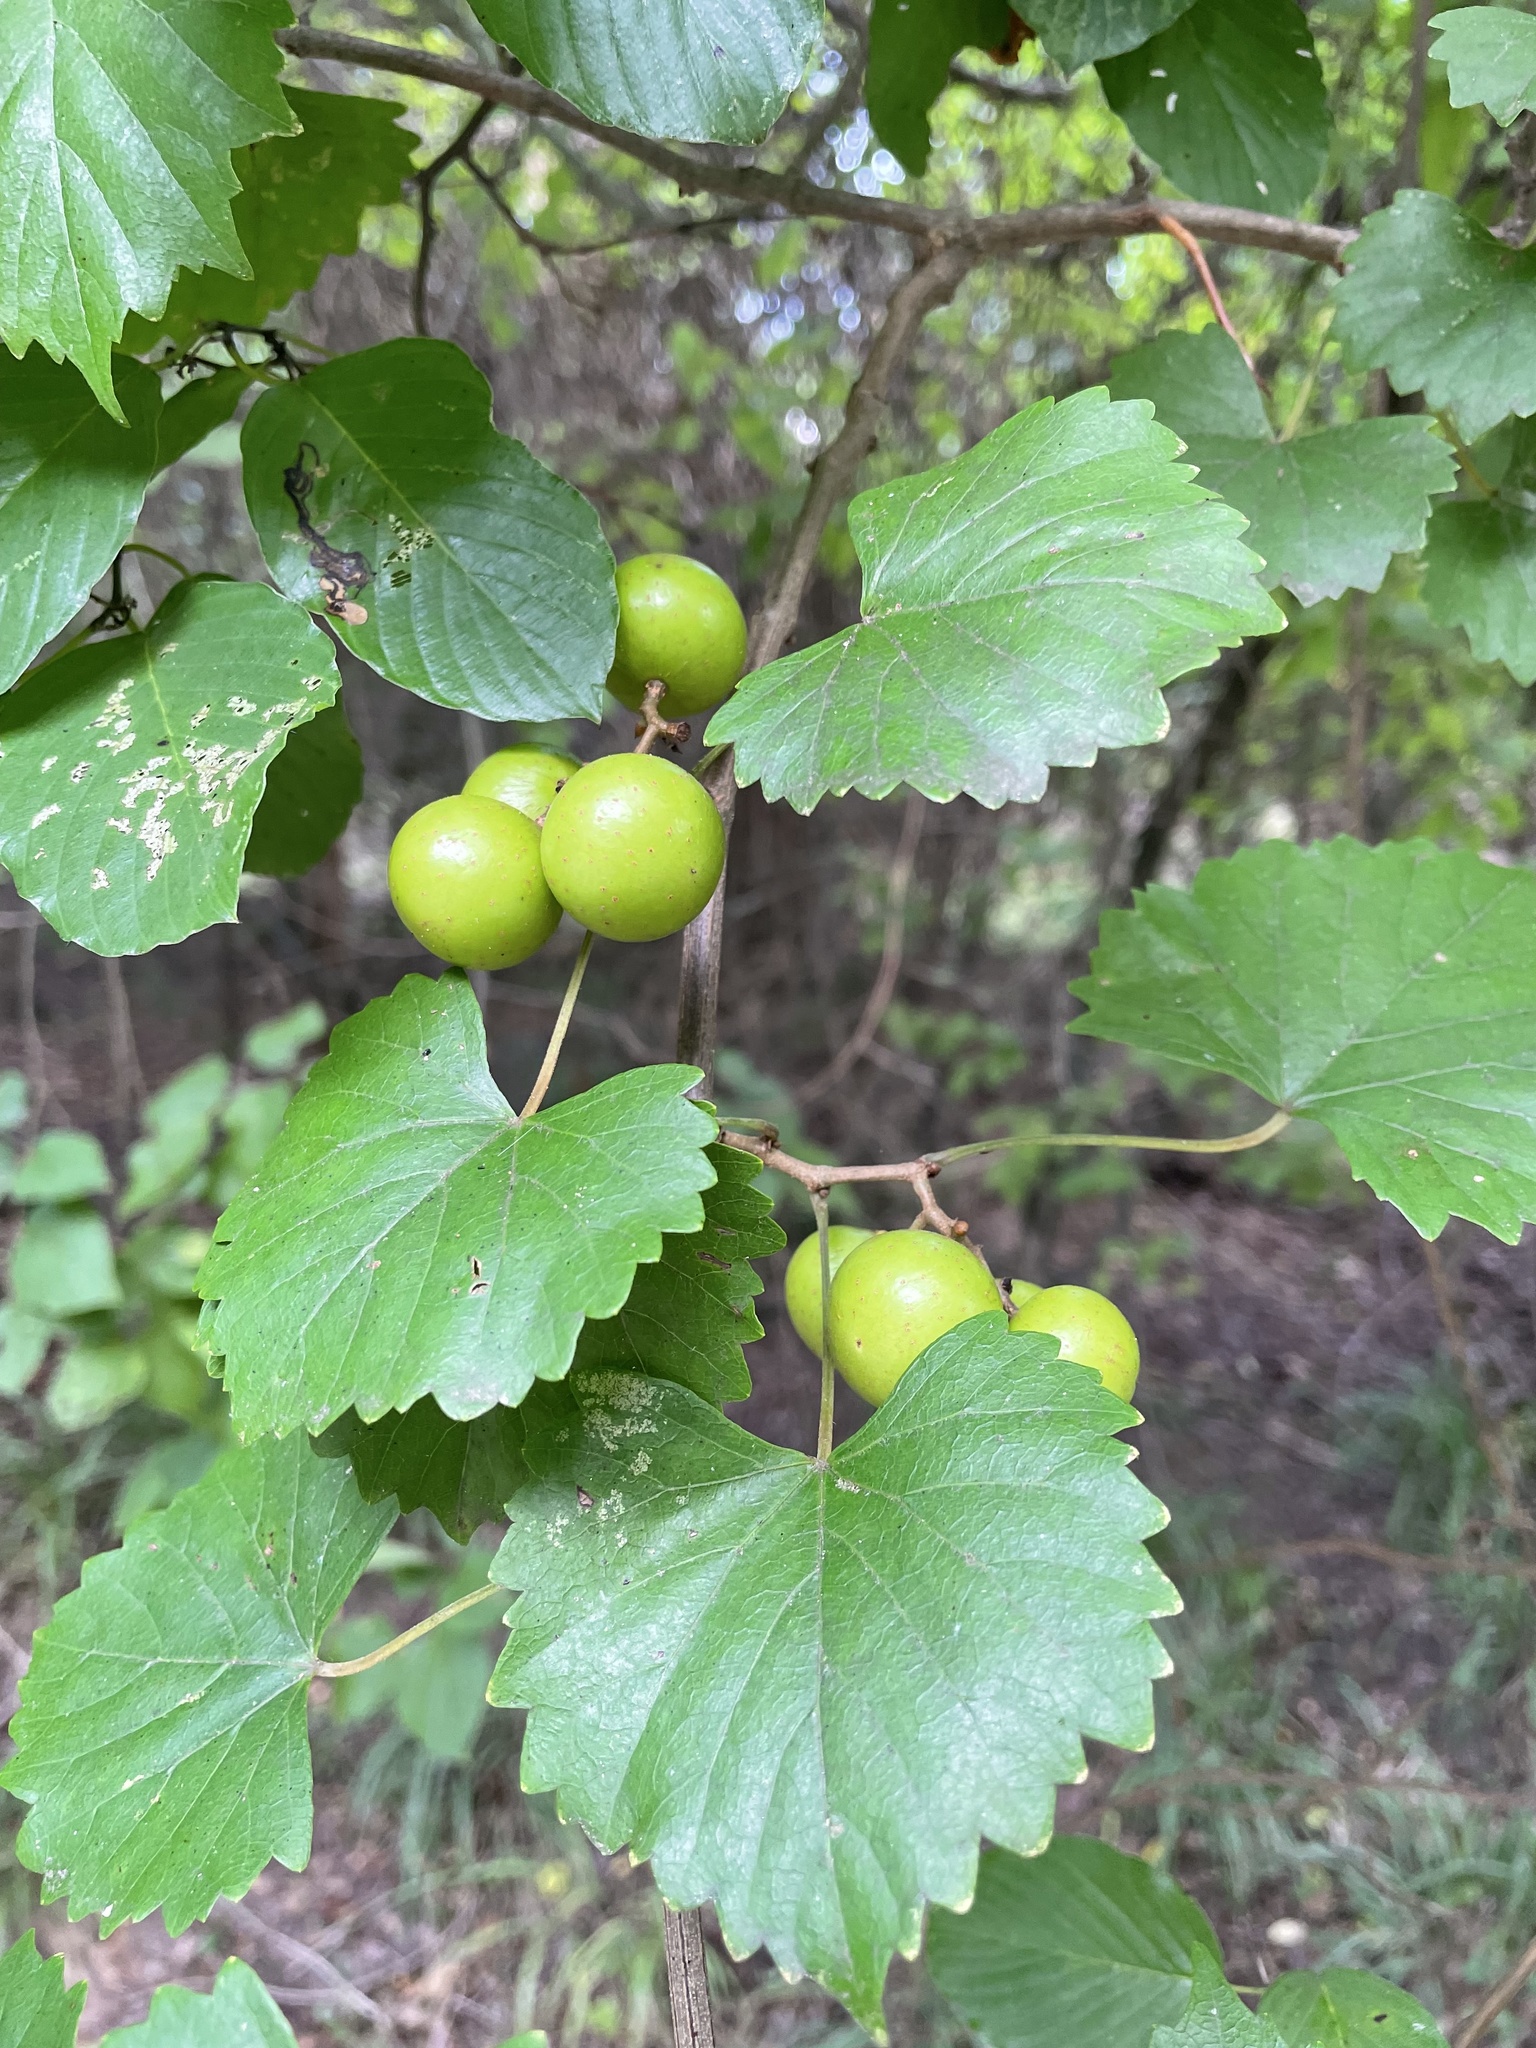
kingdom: Plantae
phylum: Tracheophyta
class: Magnoliopsida
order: Vitales
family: Vitaceae
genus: Vitis
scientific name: Vitis rotundifolia
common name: Muscadine grape
